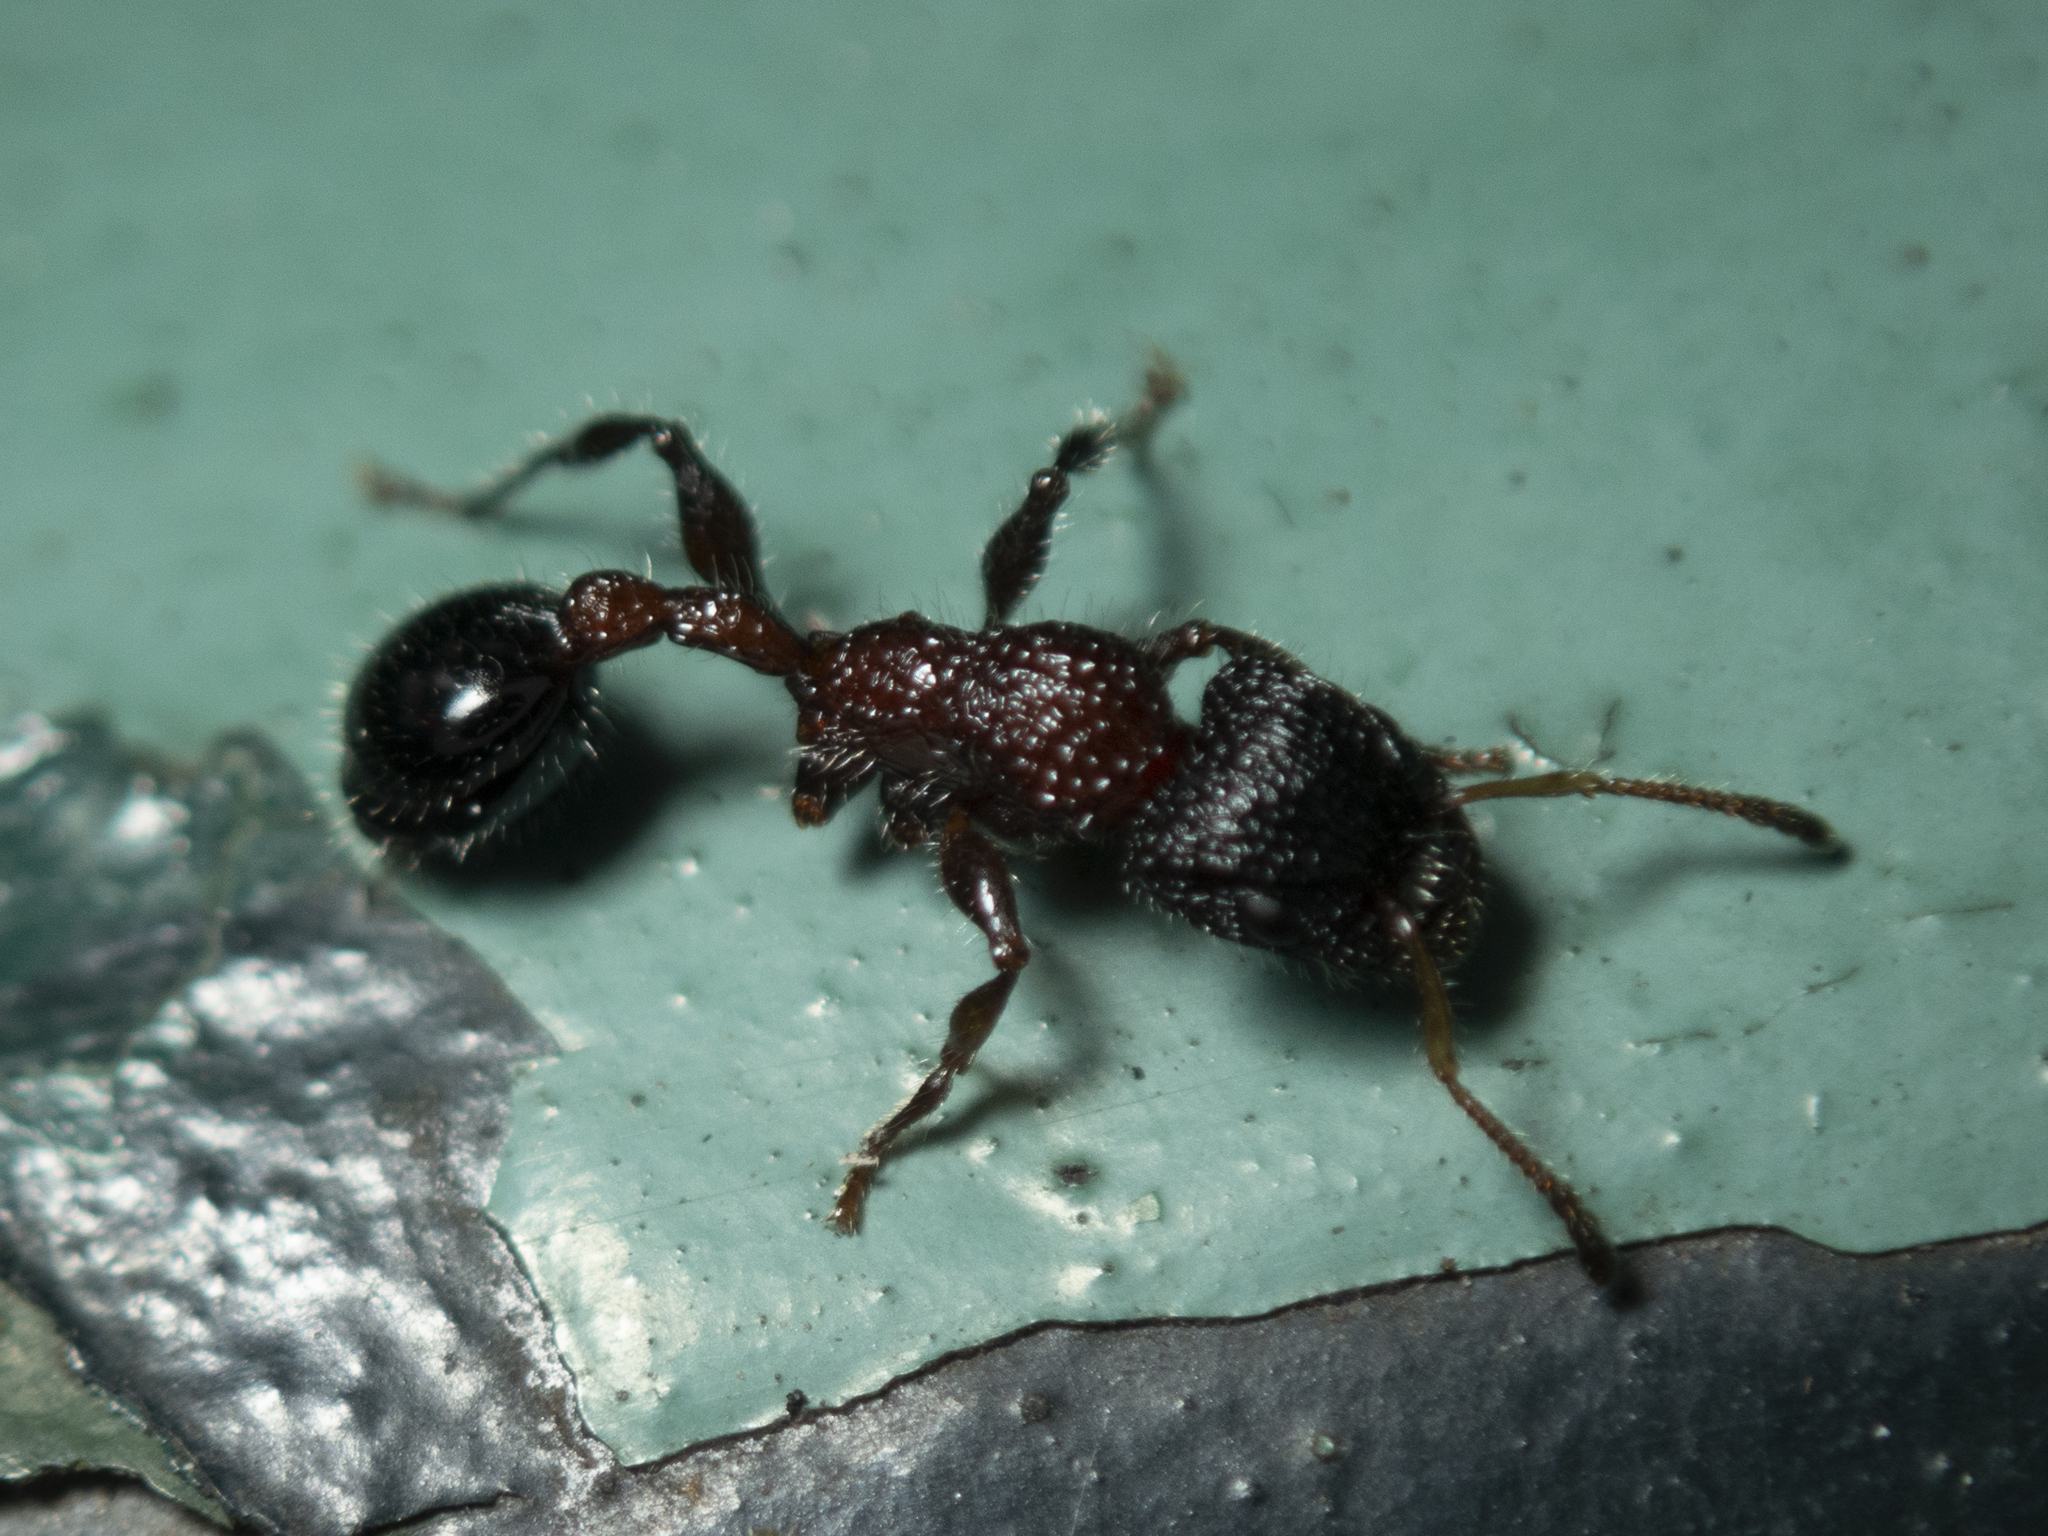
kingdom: Animalia
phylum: Arthropoda
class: Insecta
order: Hymenoptera
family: Formicidae
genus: Dilobocondyla
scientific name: Dilobocondyla fouqueti
